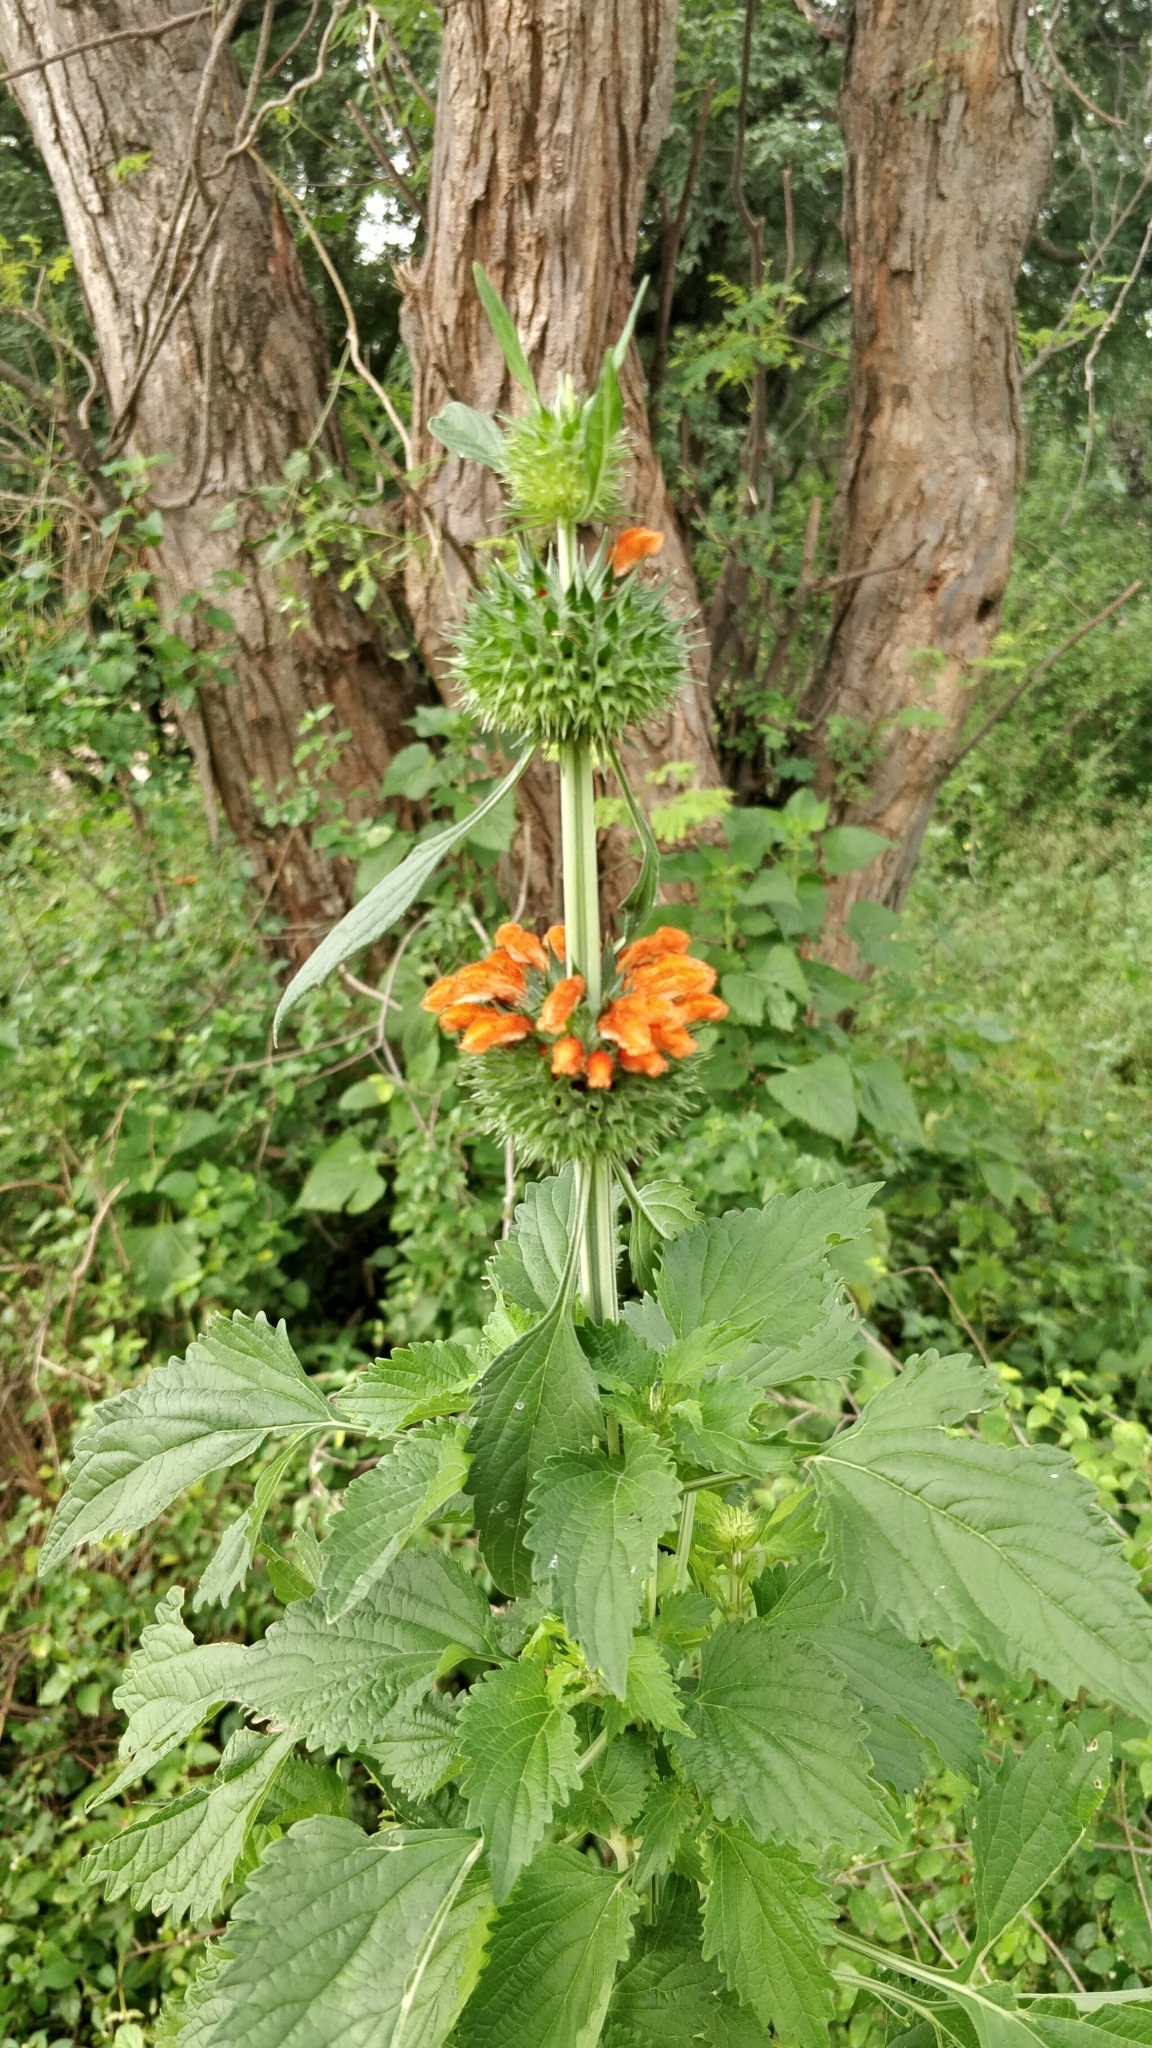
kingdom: Plantae
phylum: Tracheophyta
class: Magnoliopsida
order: Lamiales
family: Lamiaceae
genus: Leonotis
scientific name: Leonotis nepetifolia
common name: Christmas candlestick
